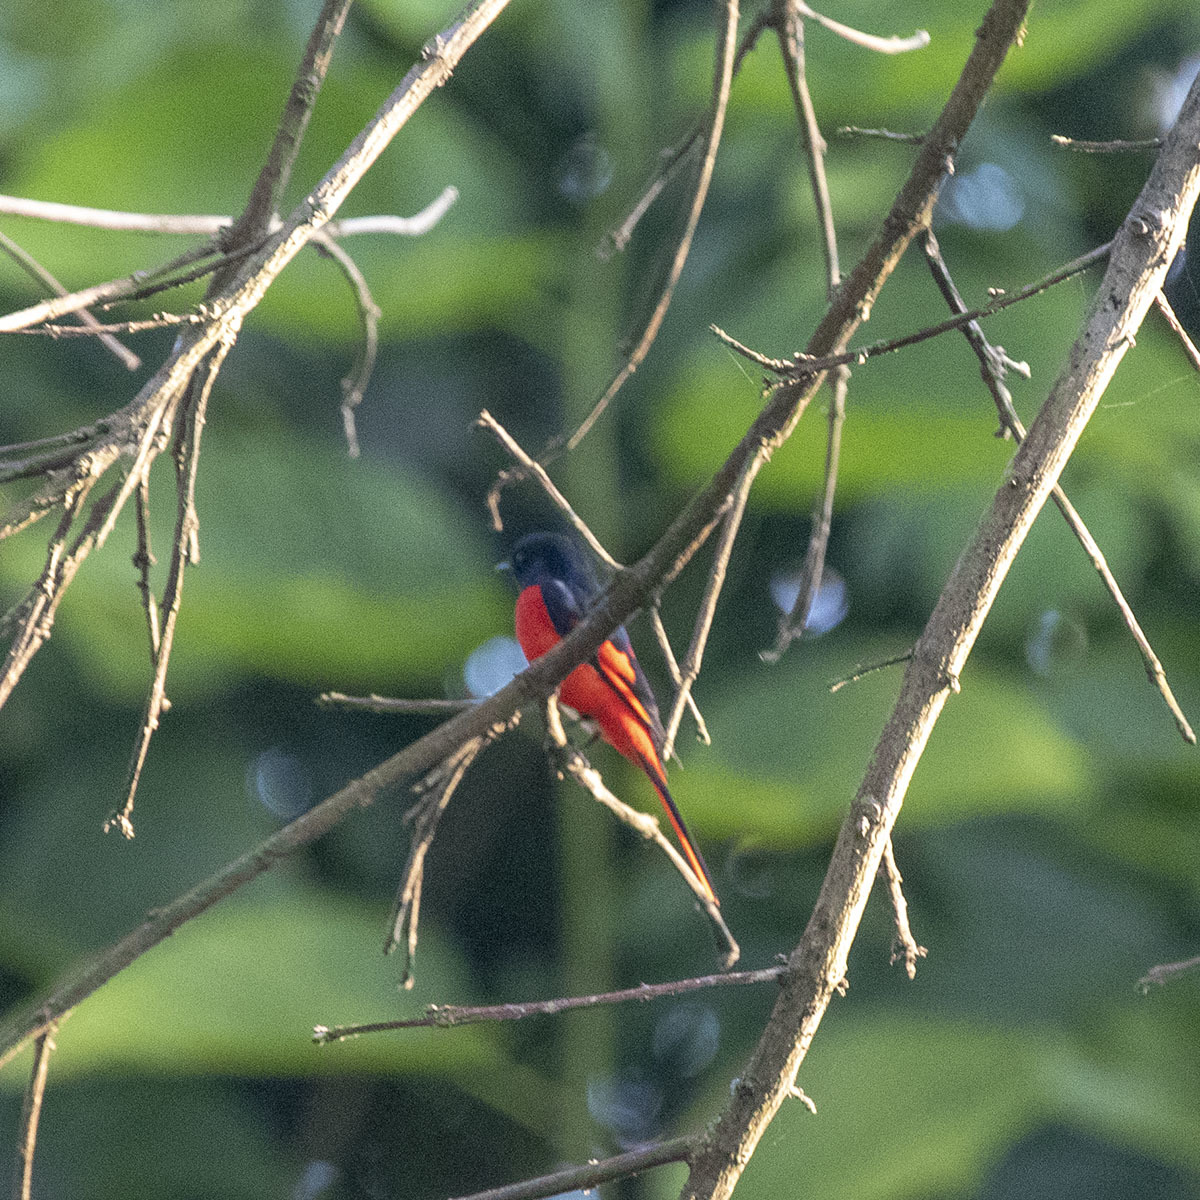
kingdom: Animalia
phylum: Chordata
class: Aves
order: Passeriformes
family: Campephagidae
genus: Pericrocotus
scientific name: Pericrocotus speciosus
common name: Scarlet minivet
